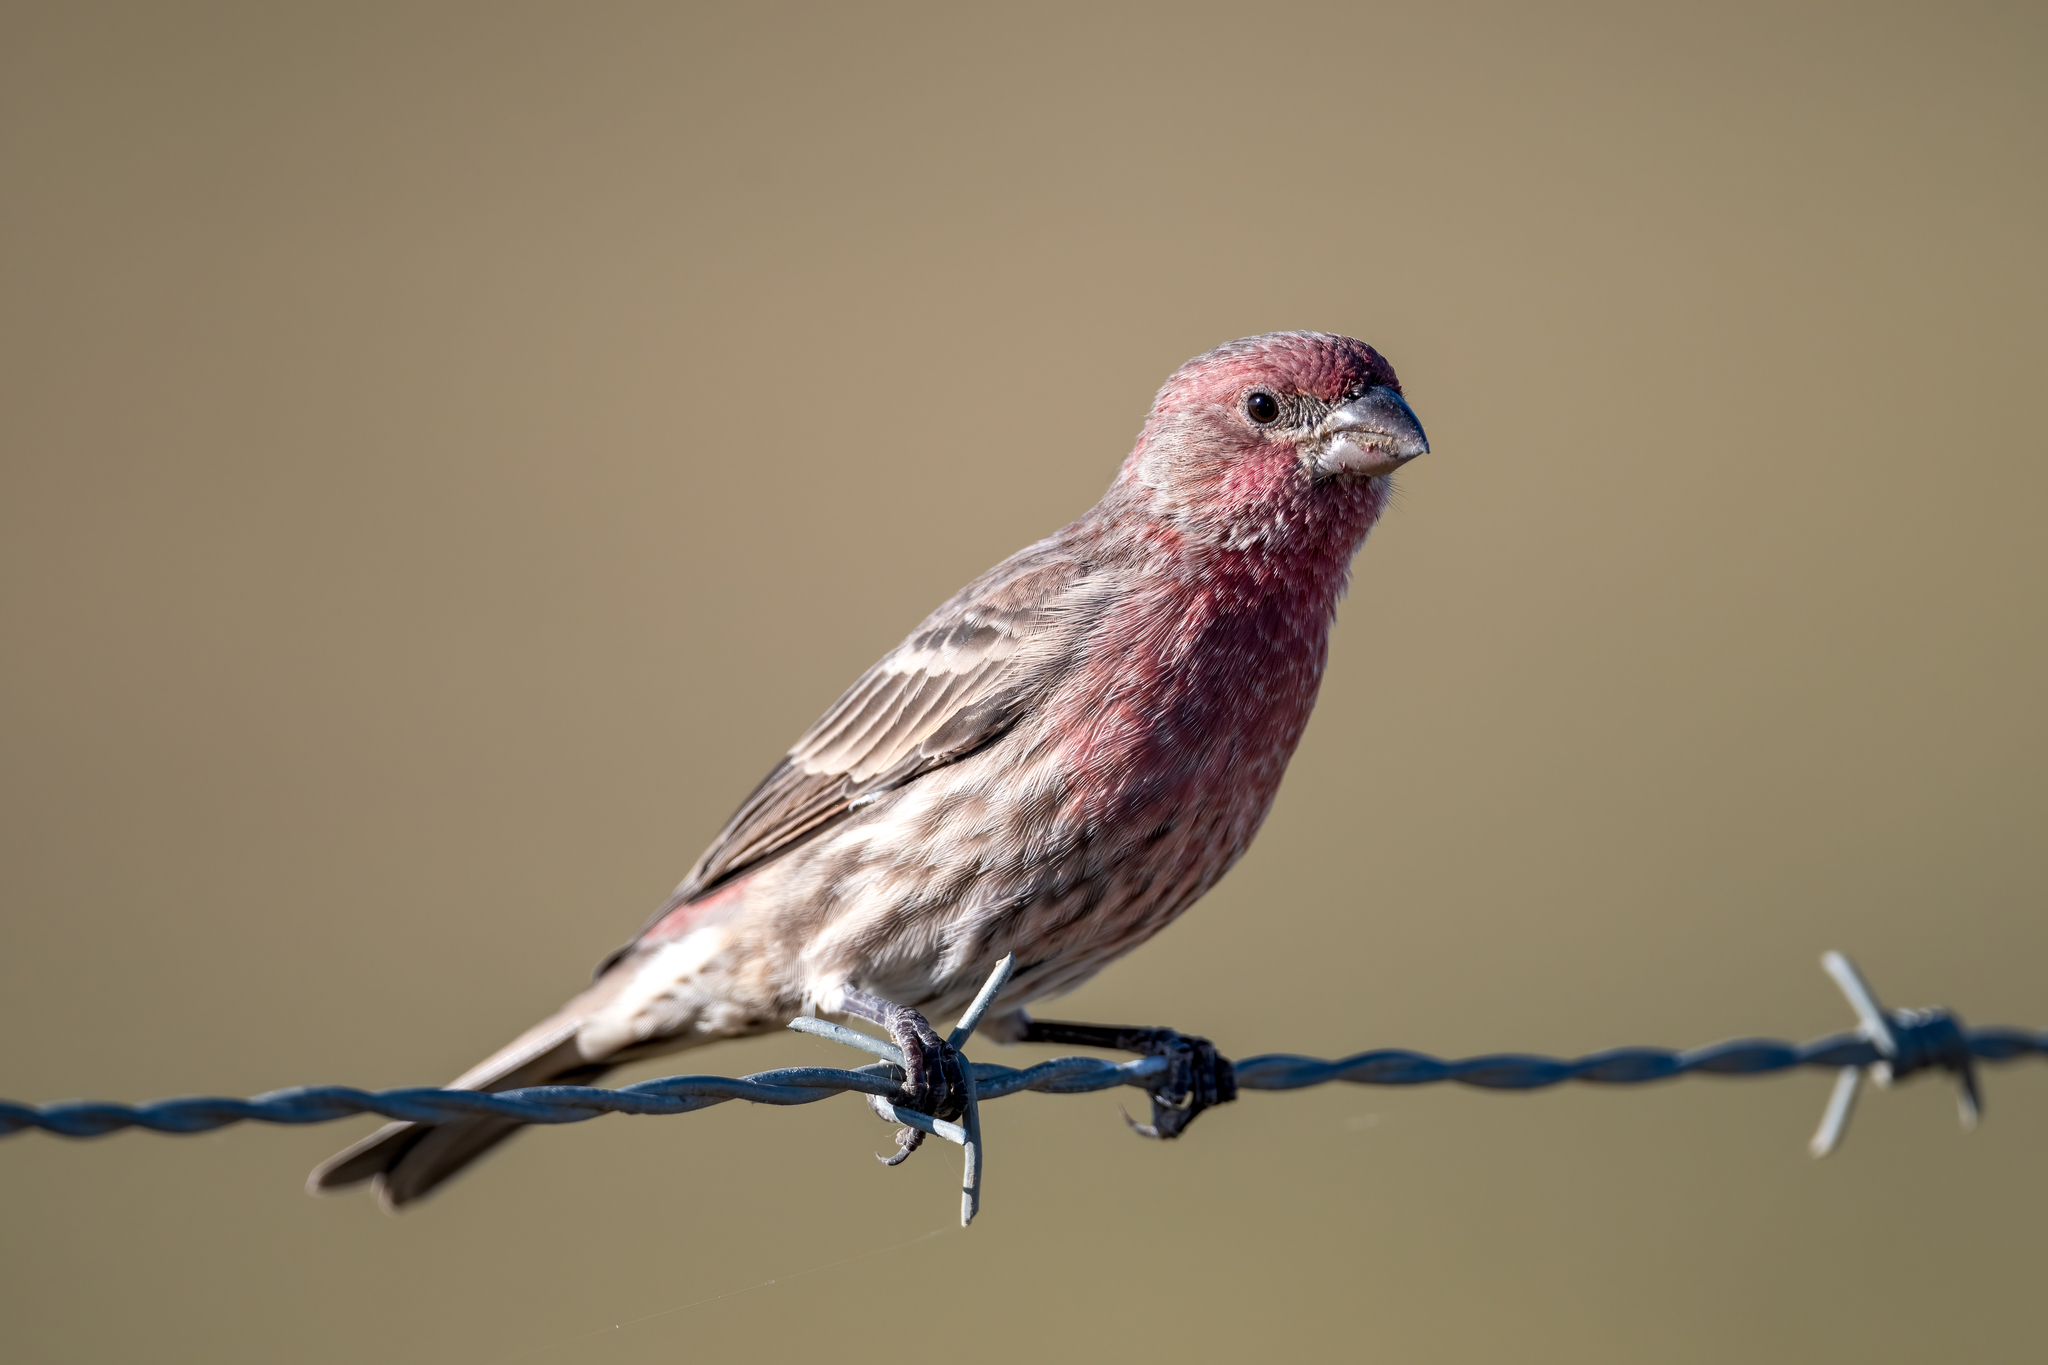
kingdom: Animalia
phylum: Chordata
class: Aves
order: Passeriformes
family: Fringillidae
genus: Haemorhous
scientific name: Haemorhous mexicanus
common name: House finch
